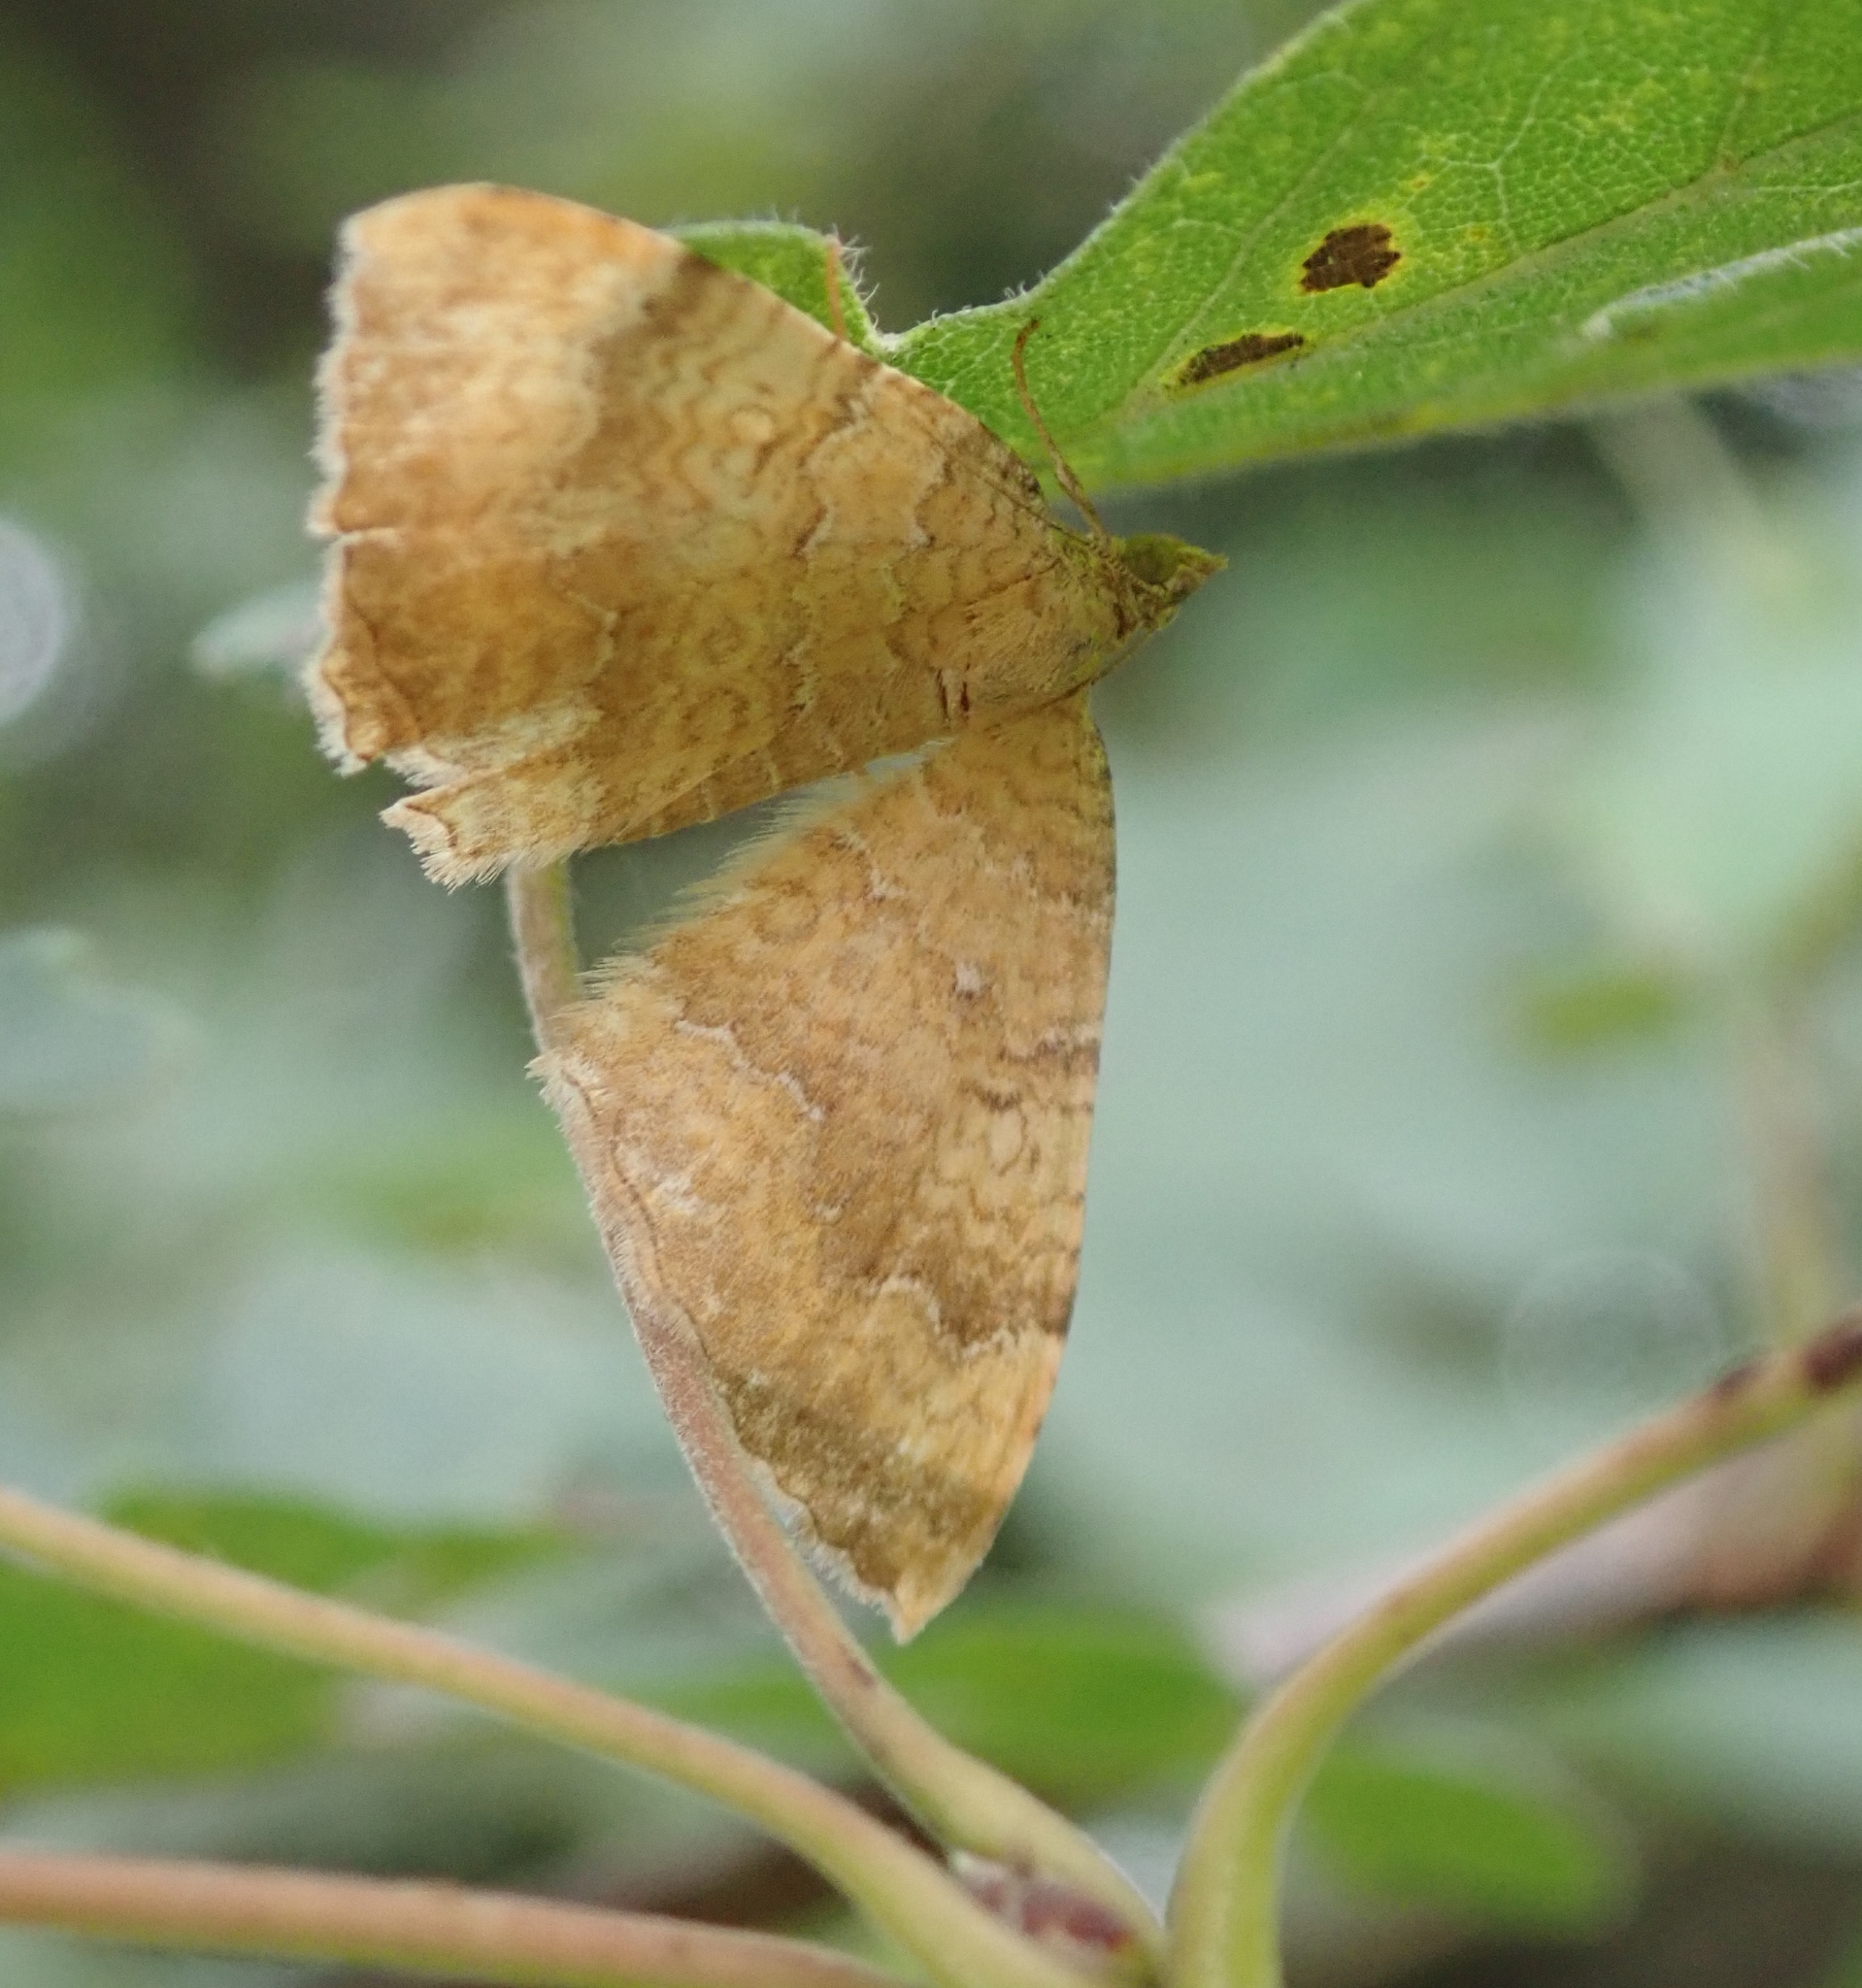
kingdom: Animalia
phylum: Arthropoda
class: Insecta
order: Lepidoptera
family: Geometridae
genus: Camptogramma
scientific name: Camptogramma bilineata
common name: Yellow shell
